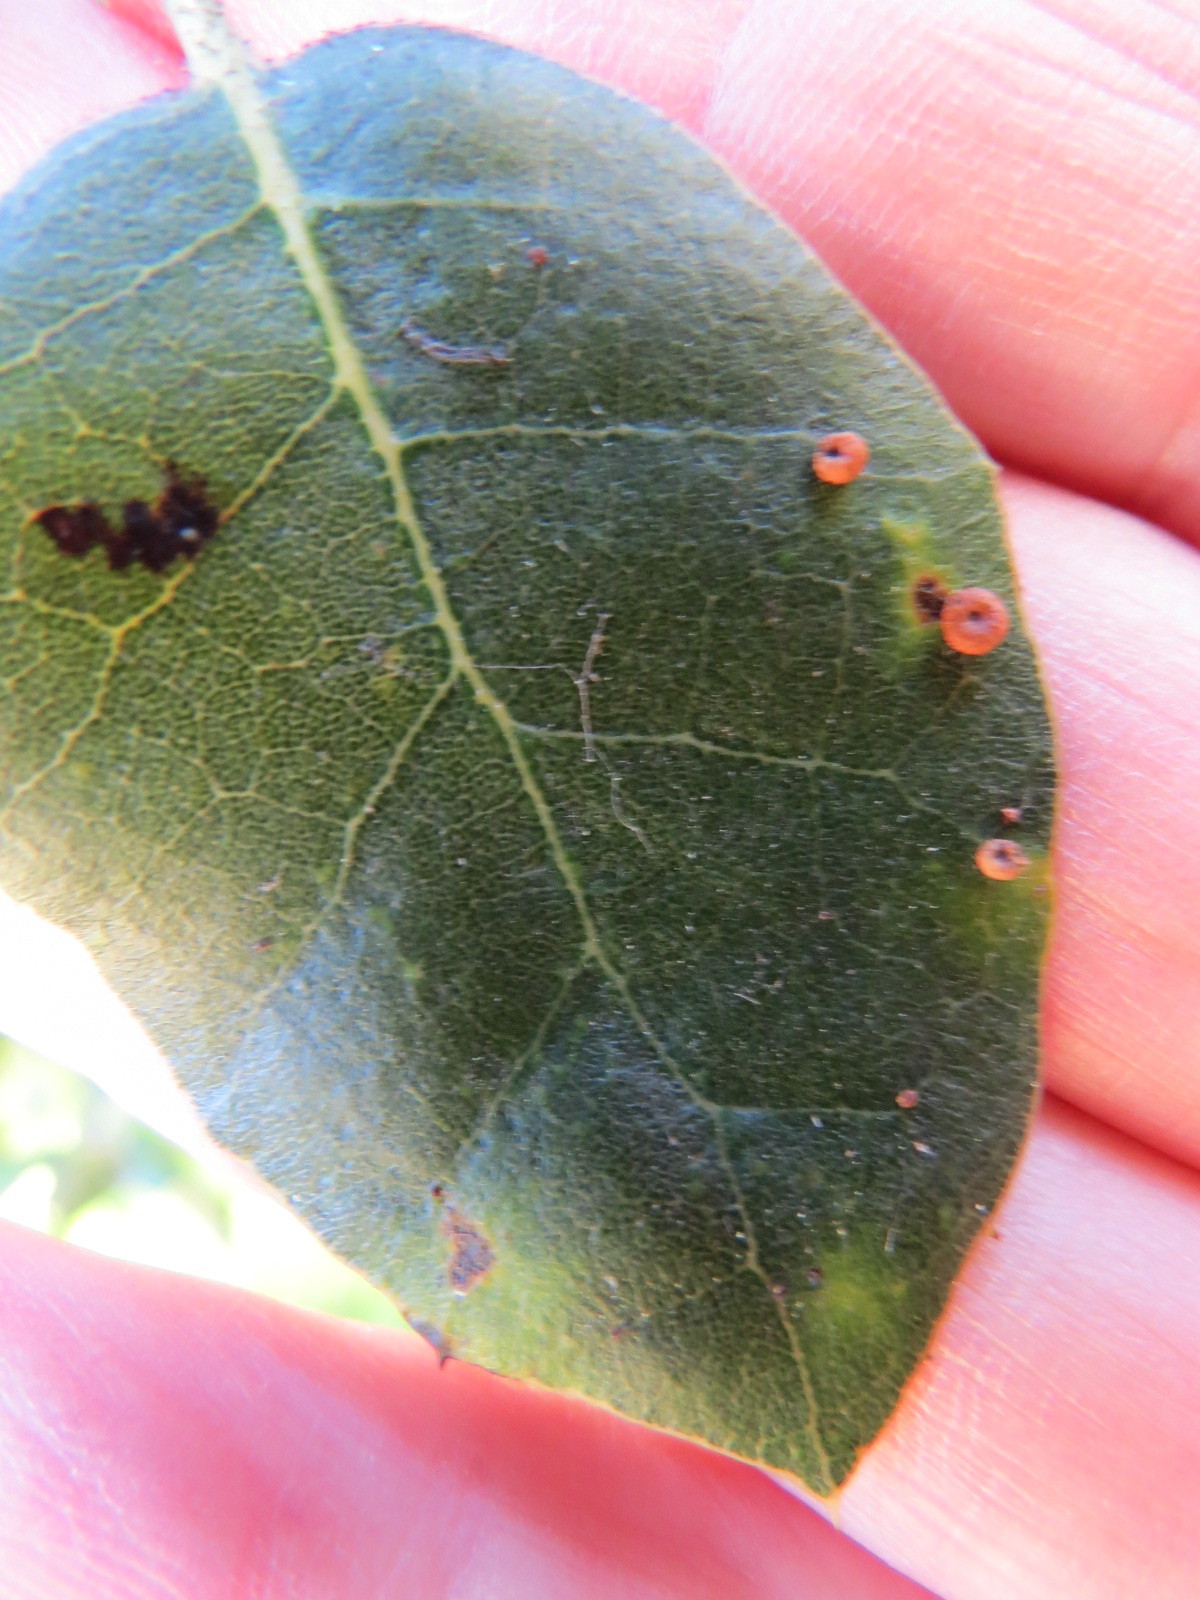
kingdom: Animalia
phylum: Arthropoda
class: Insecta
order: Hymenoptera
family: Cynipidae
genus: Dryocosmus
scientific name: Dryocosmus
